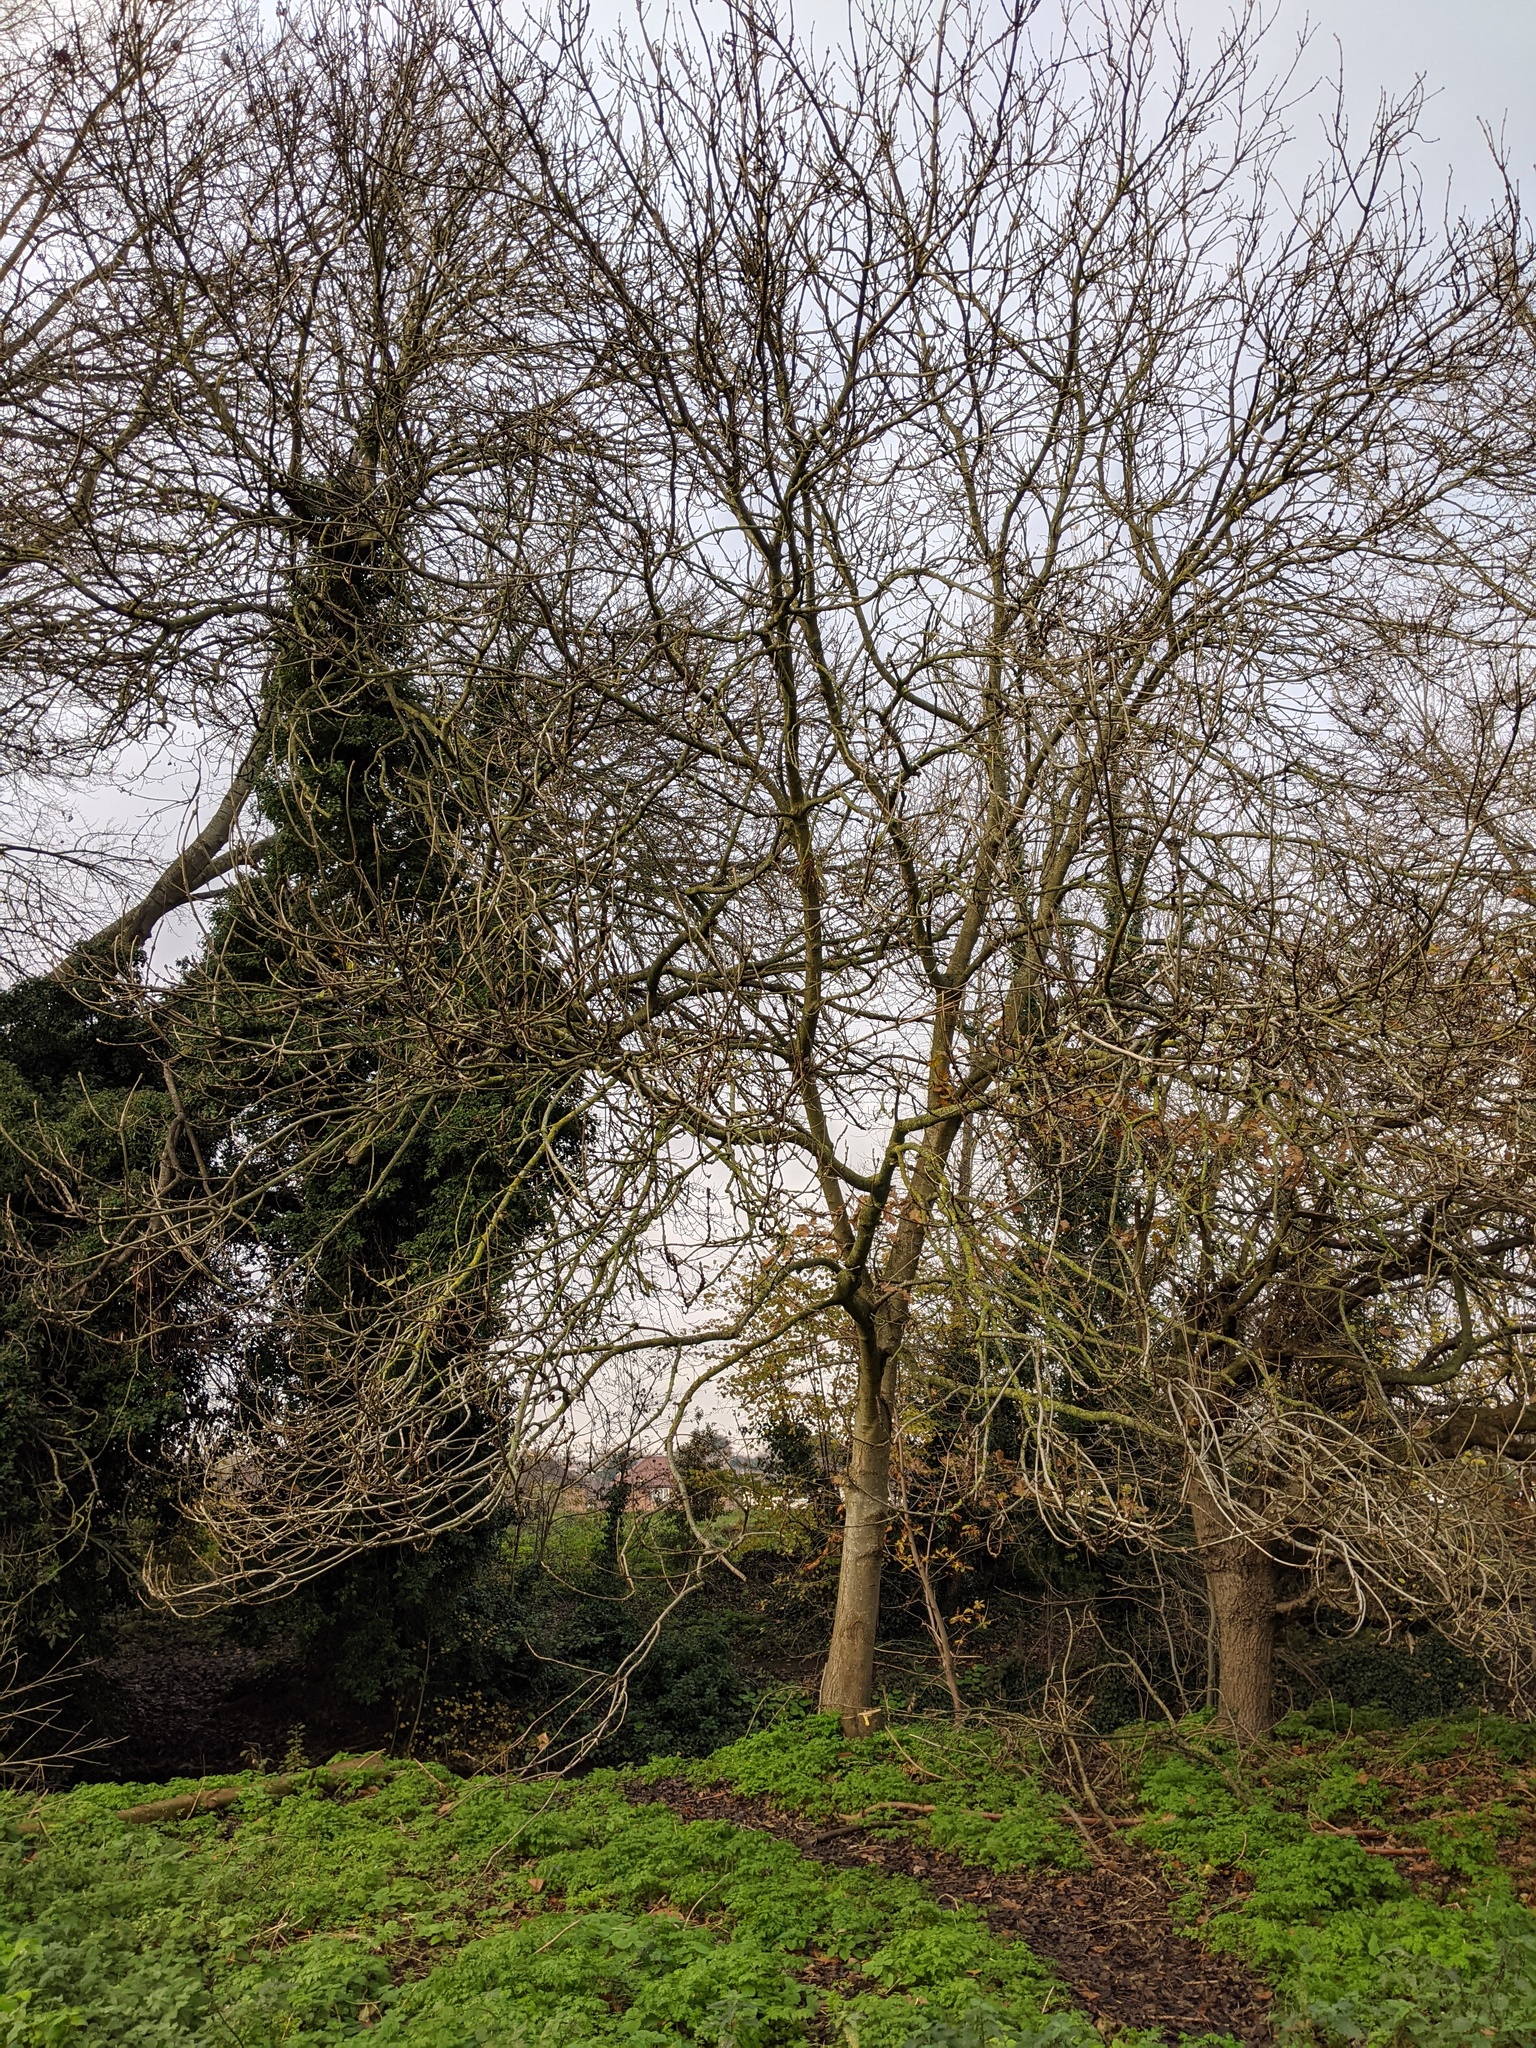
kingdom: Plantae
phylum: Tracheophyta
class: Magnoliopsida
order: Lamiales
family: Oleaceae
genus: Fraxinus
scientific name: Fraxinus excelsior
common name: European ash
